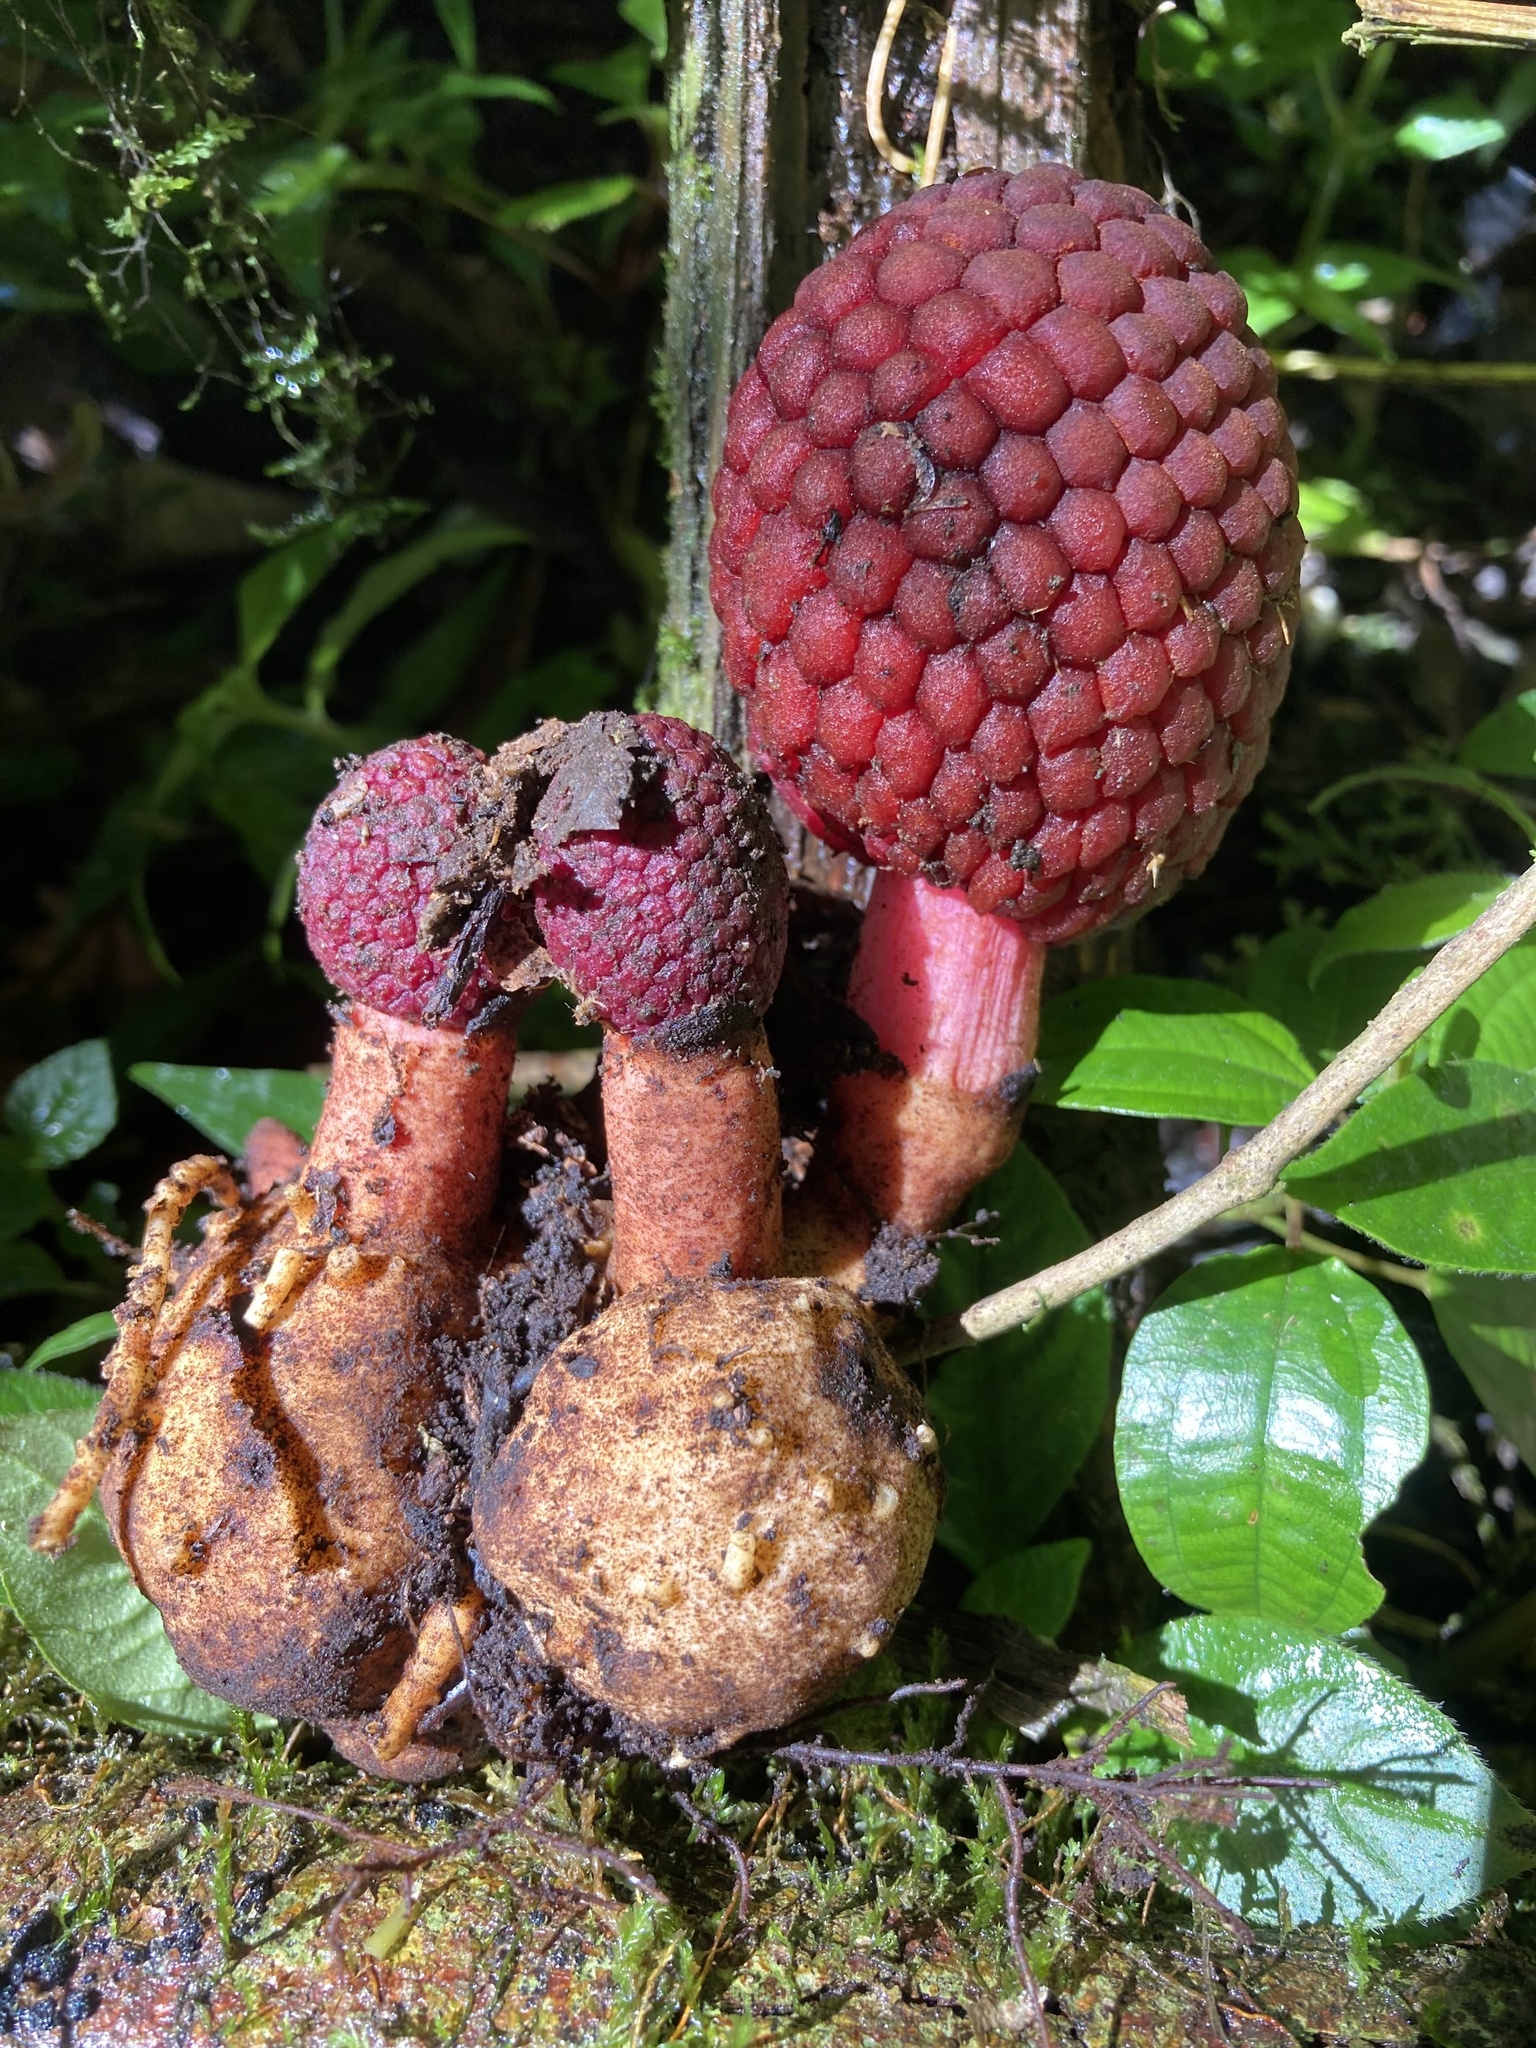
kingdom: Plantae
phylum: Tracheophyta
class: Magnoliopsida
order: Santalales
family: Balanophoraceae
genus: Corynaea
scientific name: Corynaea crassa
